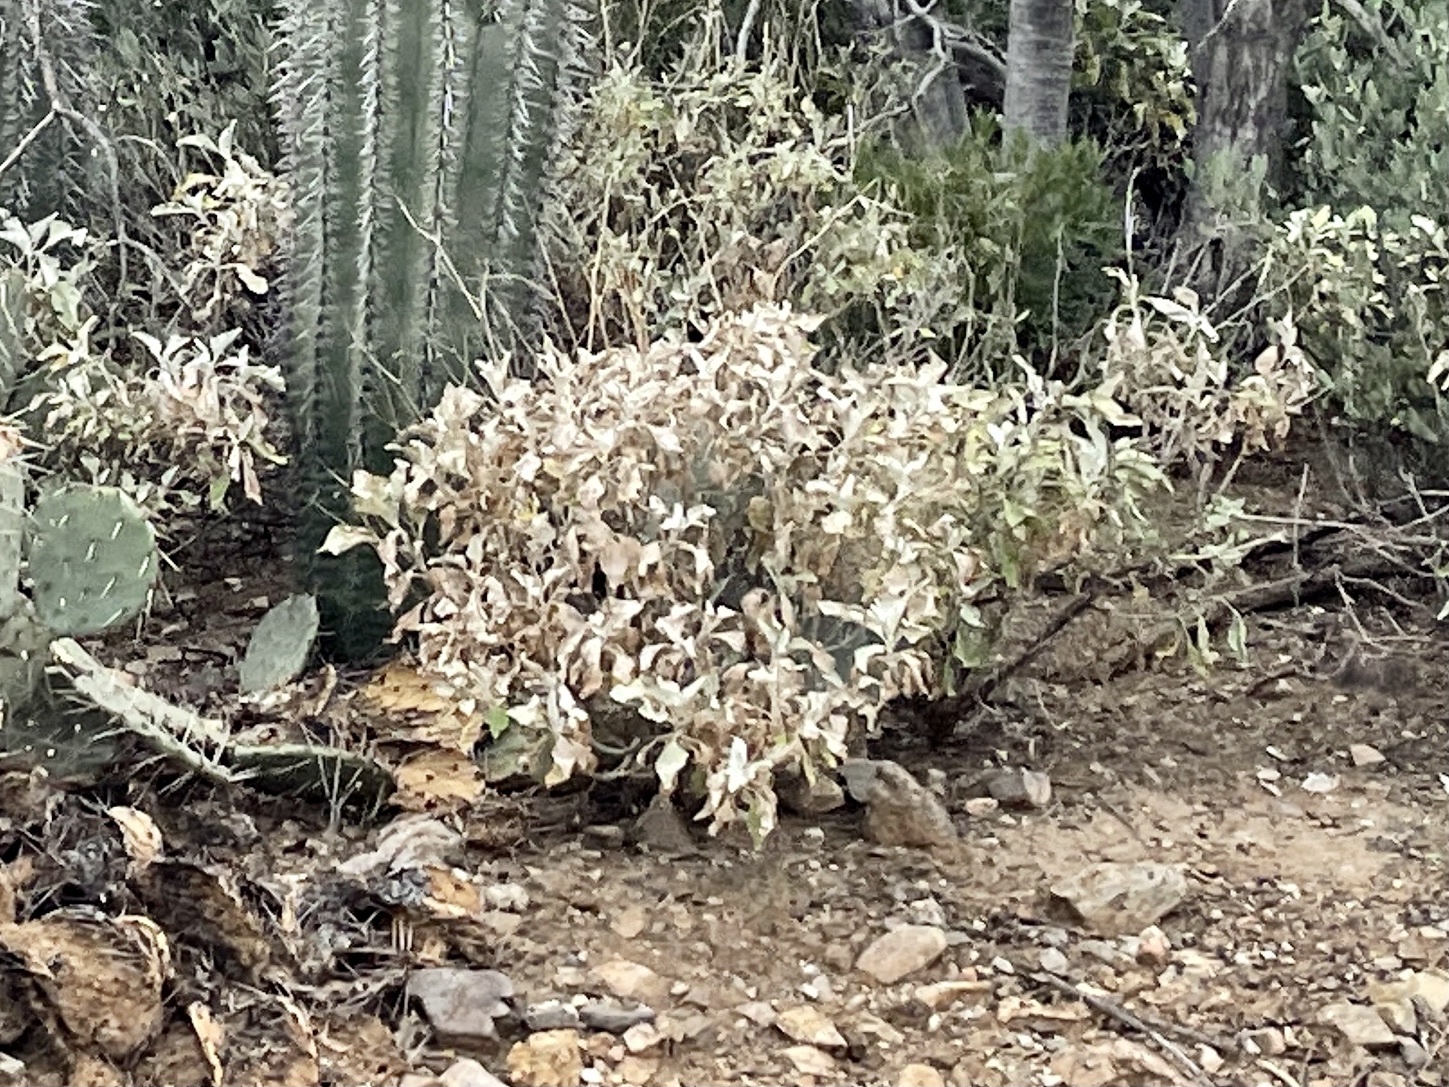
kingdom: Plantae
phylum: Tracheophyta
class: Magnoliopsida
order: Asterales
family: Asteraceae
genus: Encelia
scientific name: Encelia farinosa
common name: Brittlebush
